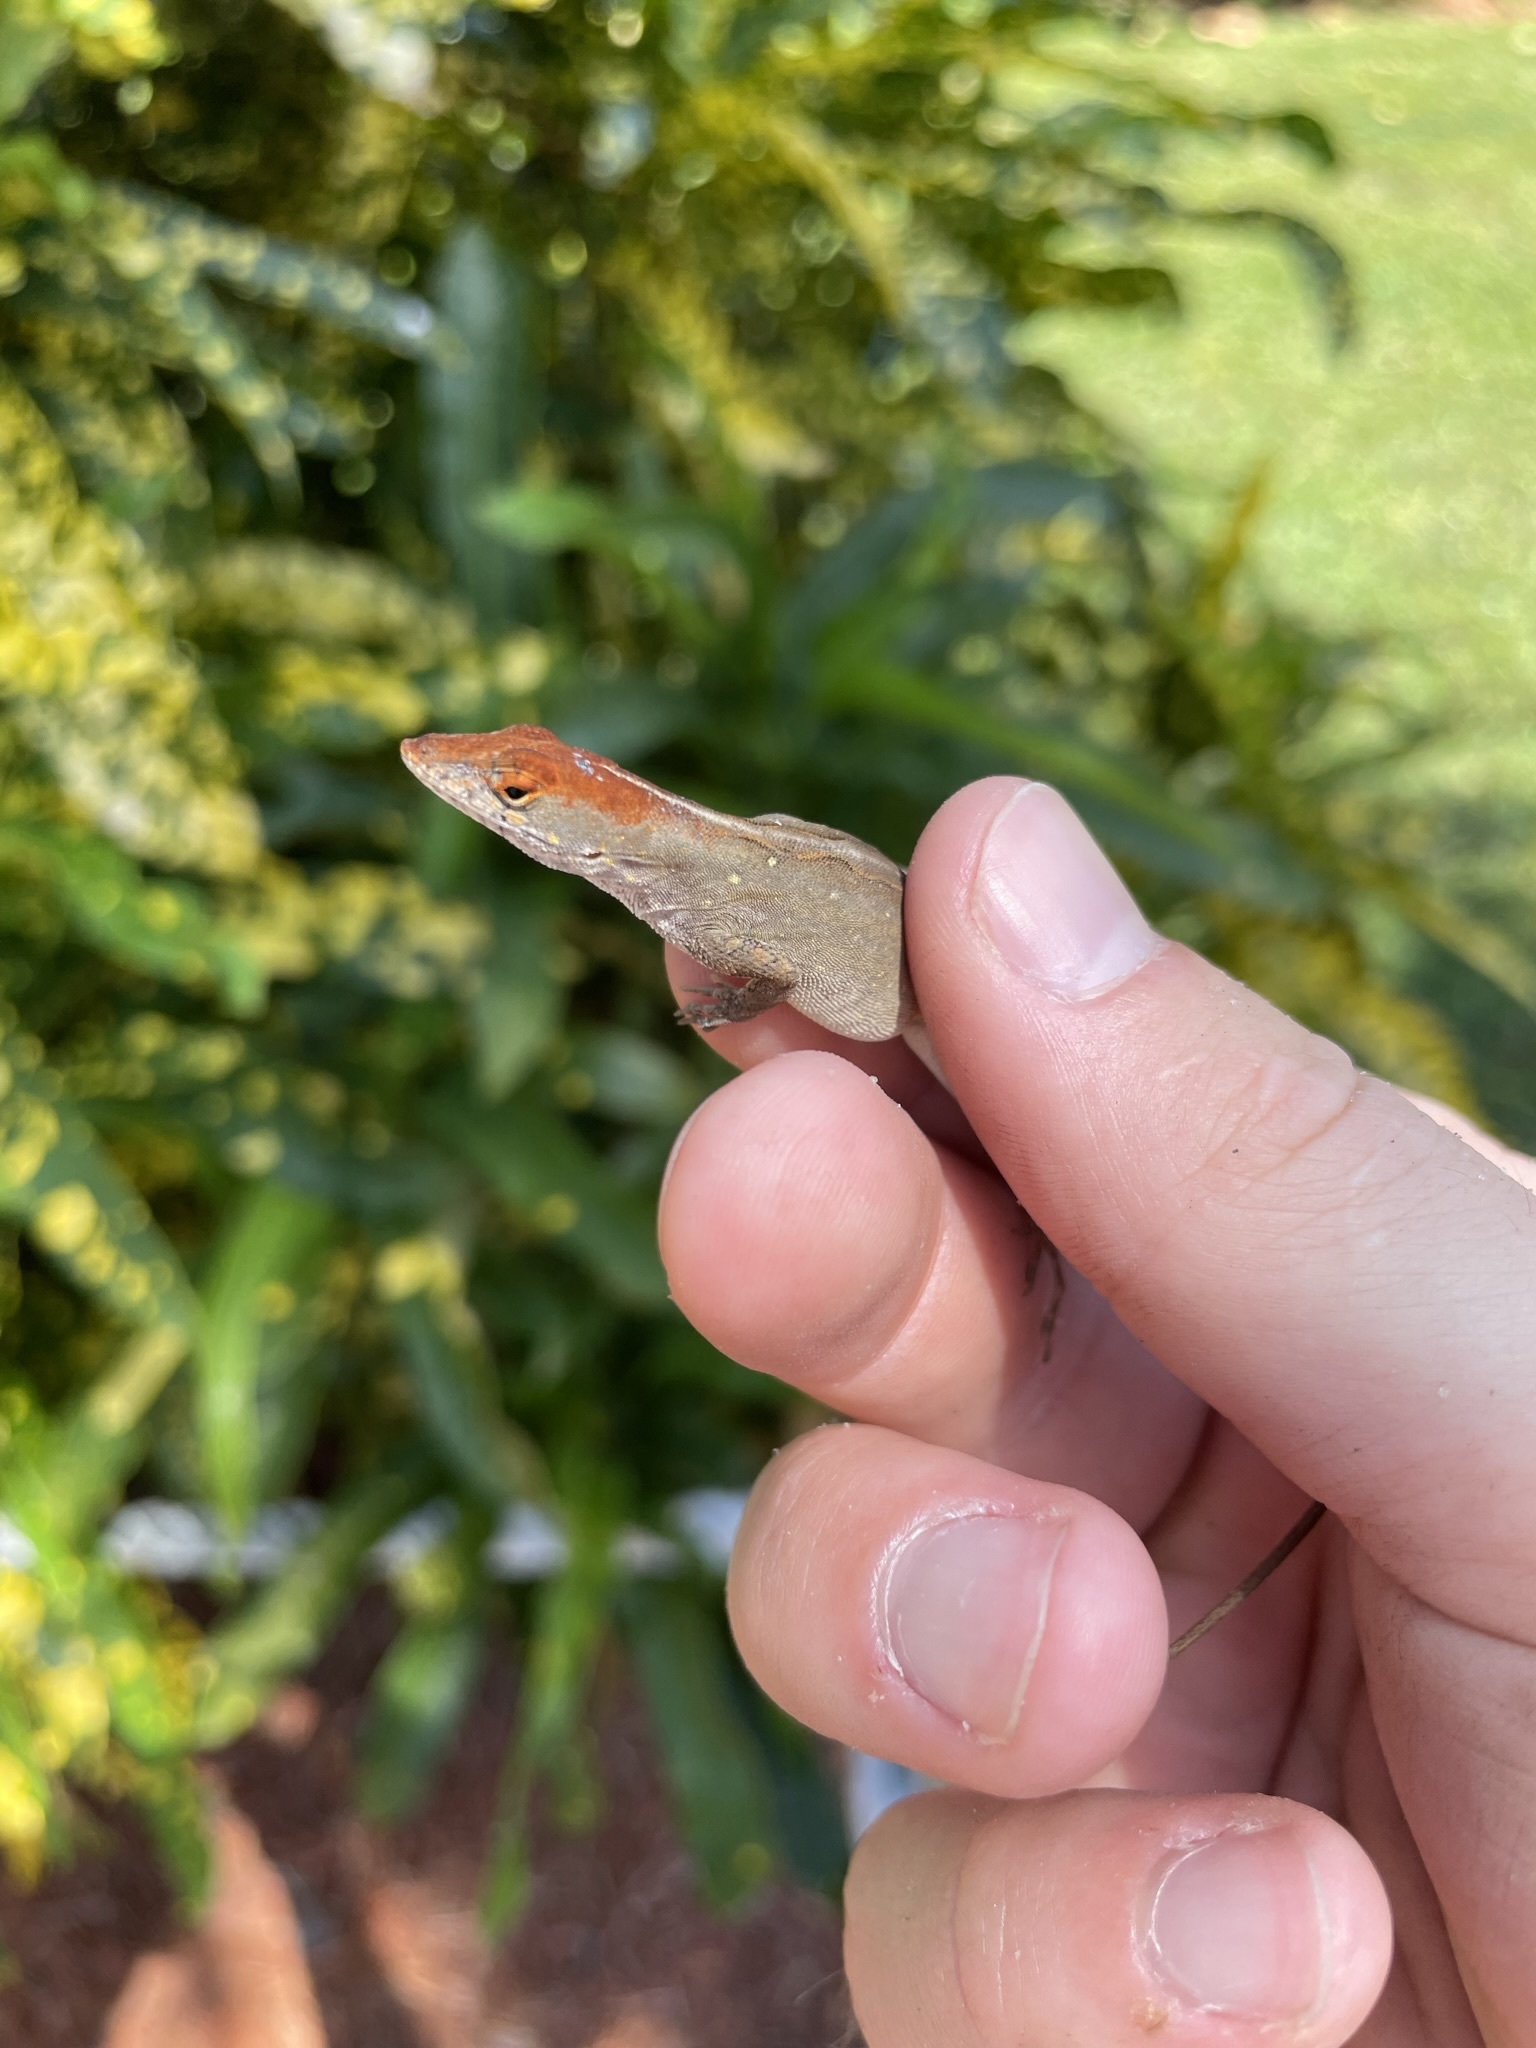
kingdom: Animalia
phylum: Chordata
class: Squamata
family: Dactyloidae
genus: Anolis
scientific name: Anolis sagrei
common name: Brown anole
